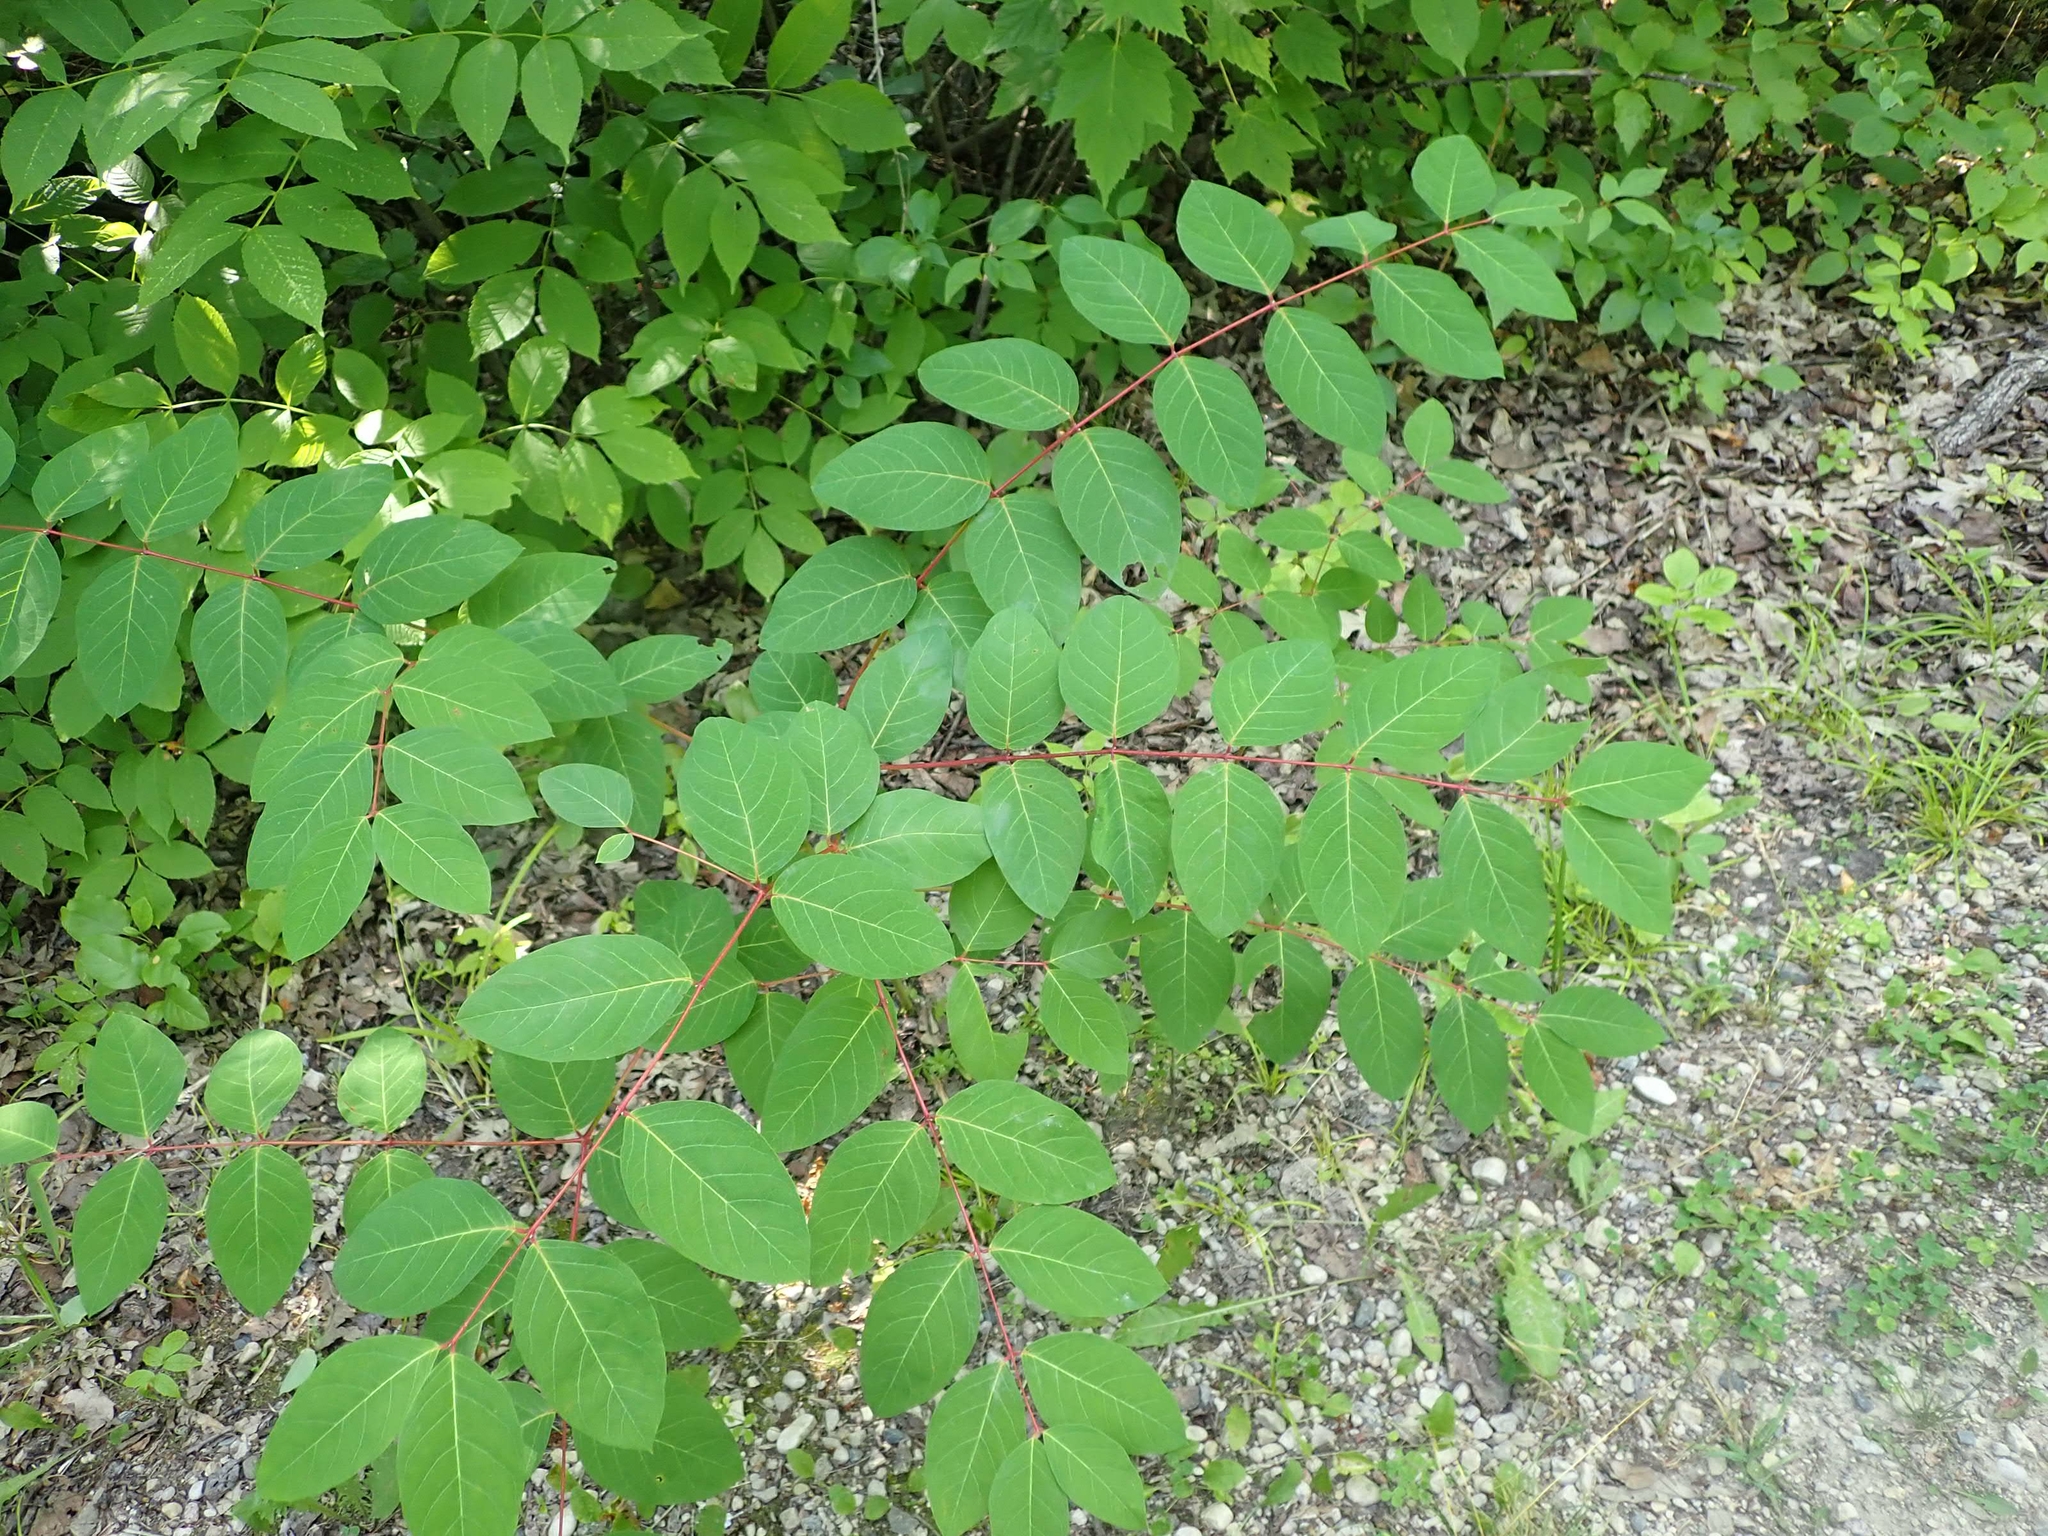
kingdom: Plantae
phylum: Tracheophyta
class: Magnoliopsida
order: Gentianales
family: Apocynaceae
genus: Apocynum
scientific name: Apocynum androsaemifolium
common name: Spreading dogbane
